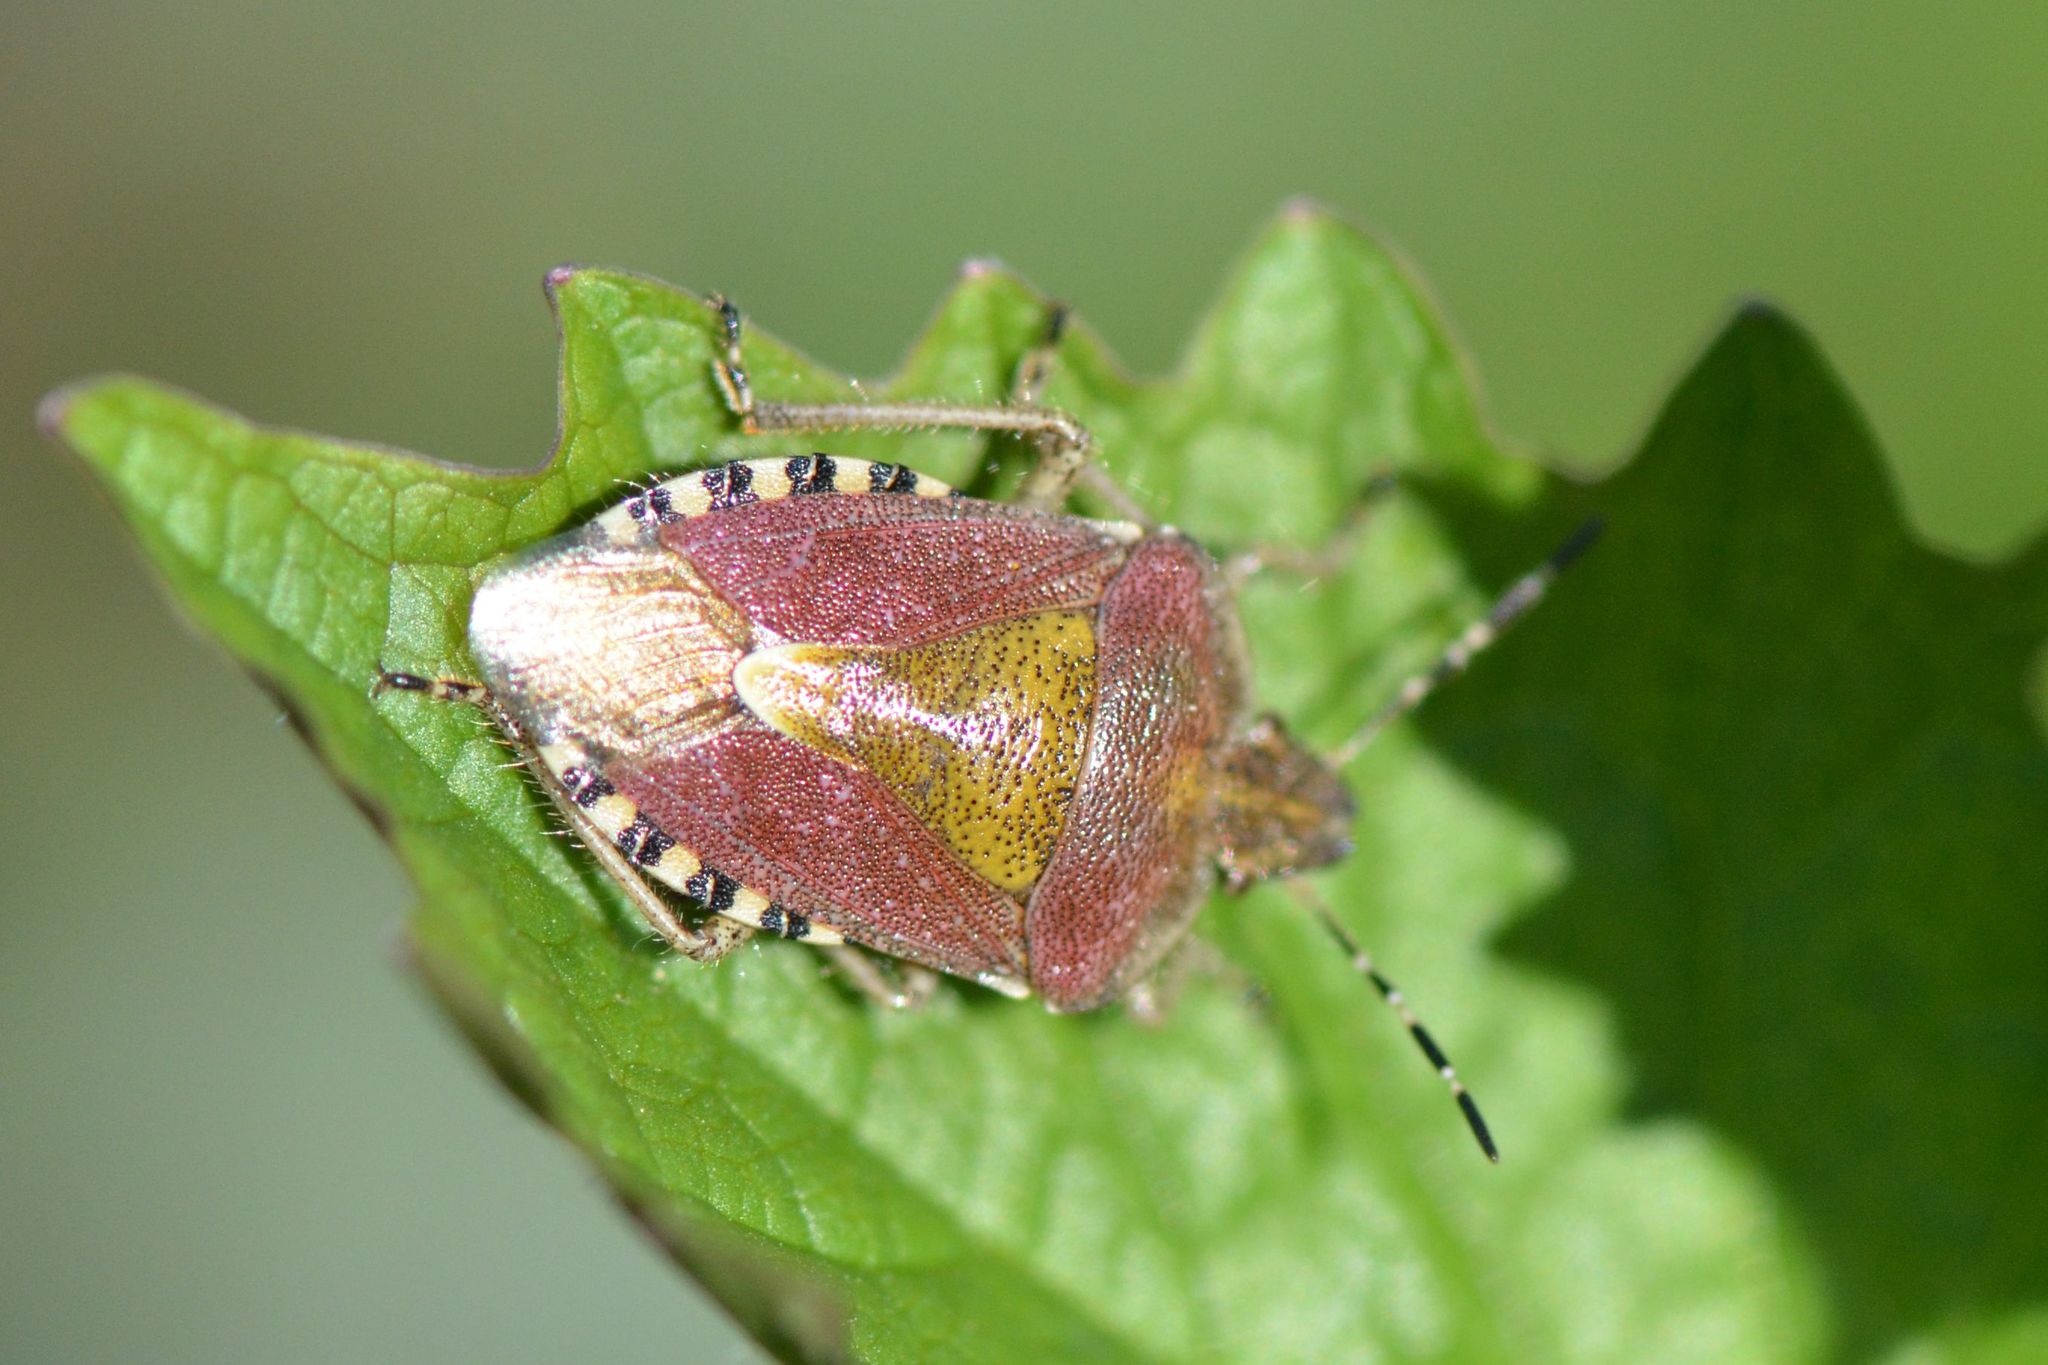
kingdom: Animalia
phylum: Arthropoda
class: Insecta
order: Hemiptera
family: Pentatomidae
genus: Dolycoris
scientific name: Dolycoris baccarum
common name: Sloe bug
